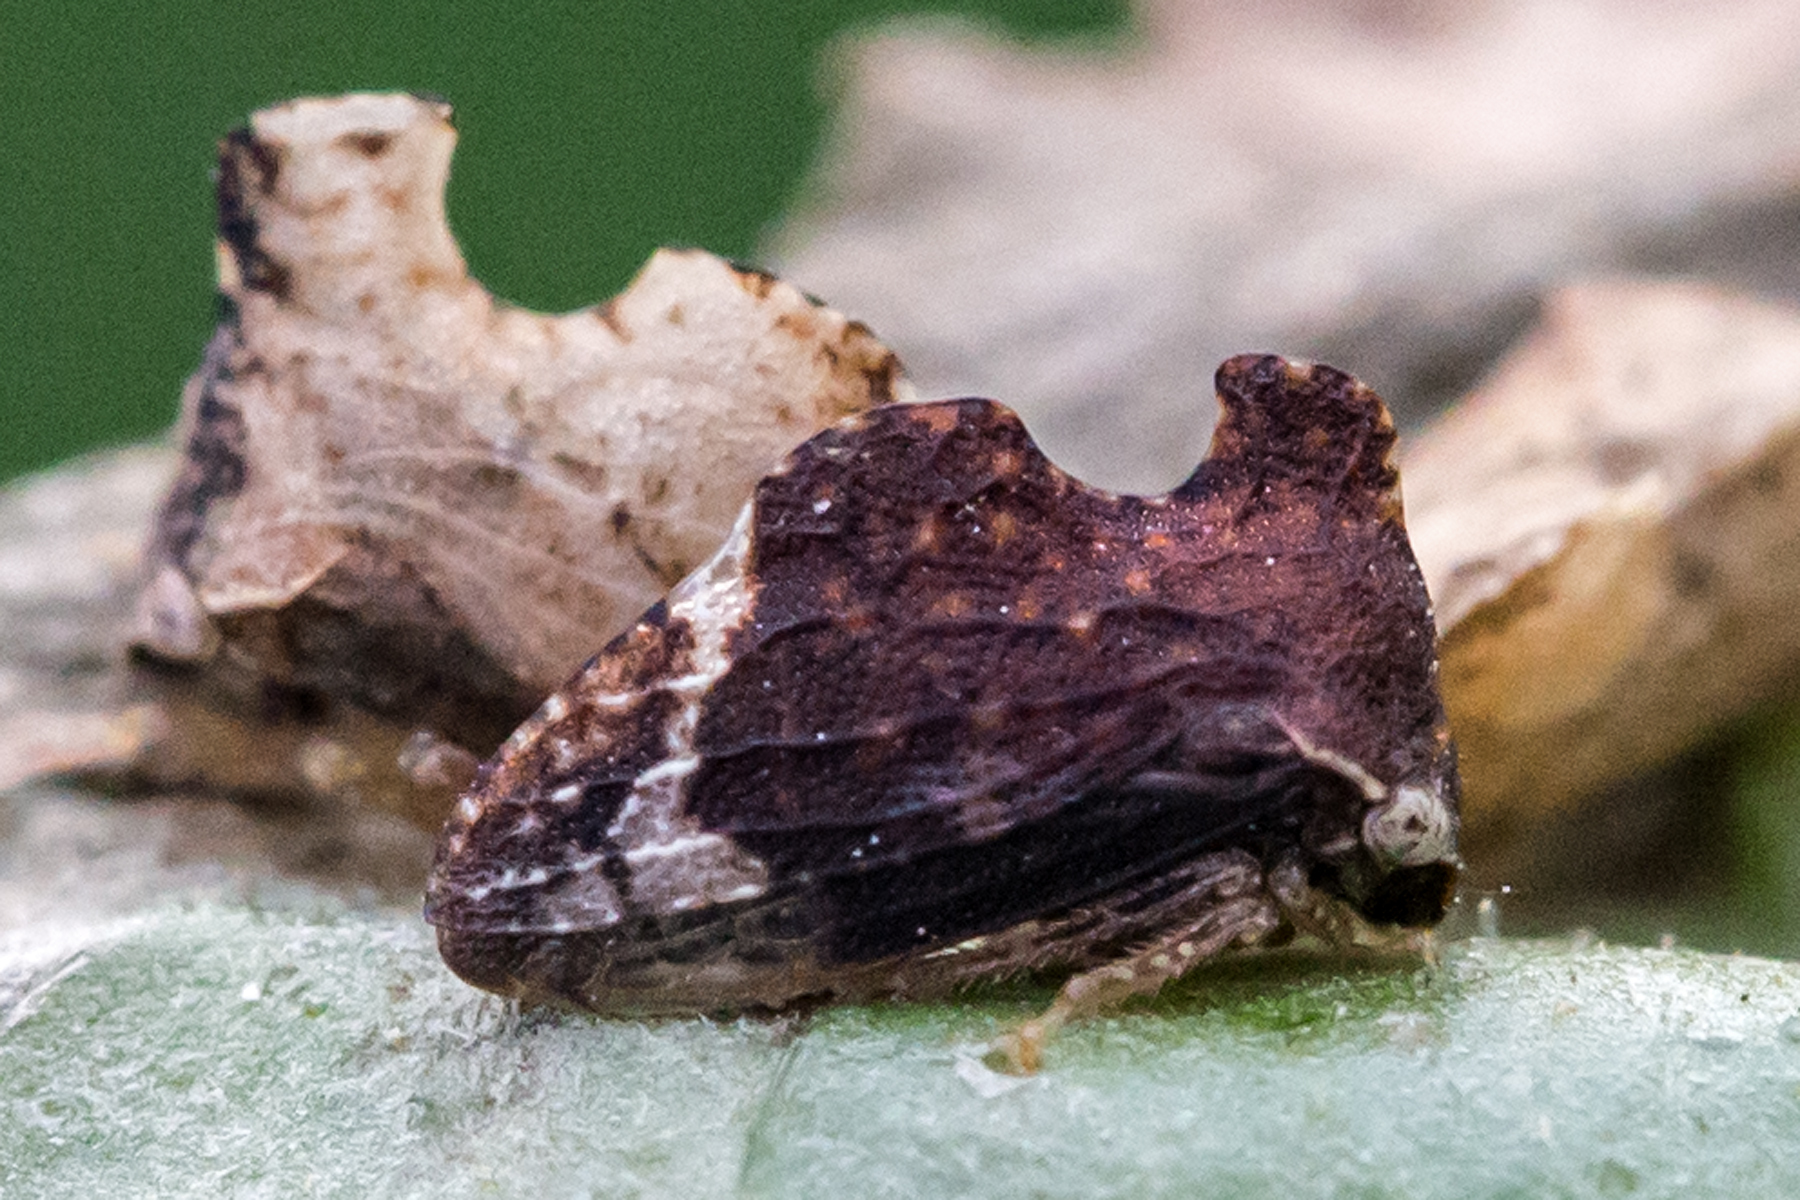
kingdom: Animalia
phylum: Arthropoda
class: Insecta
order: Hemiptera
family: Membracidae
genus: Entylia
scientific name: Entylia carinata
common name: Keeled treehopper
